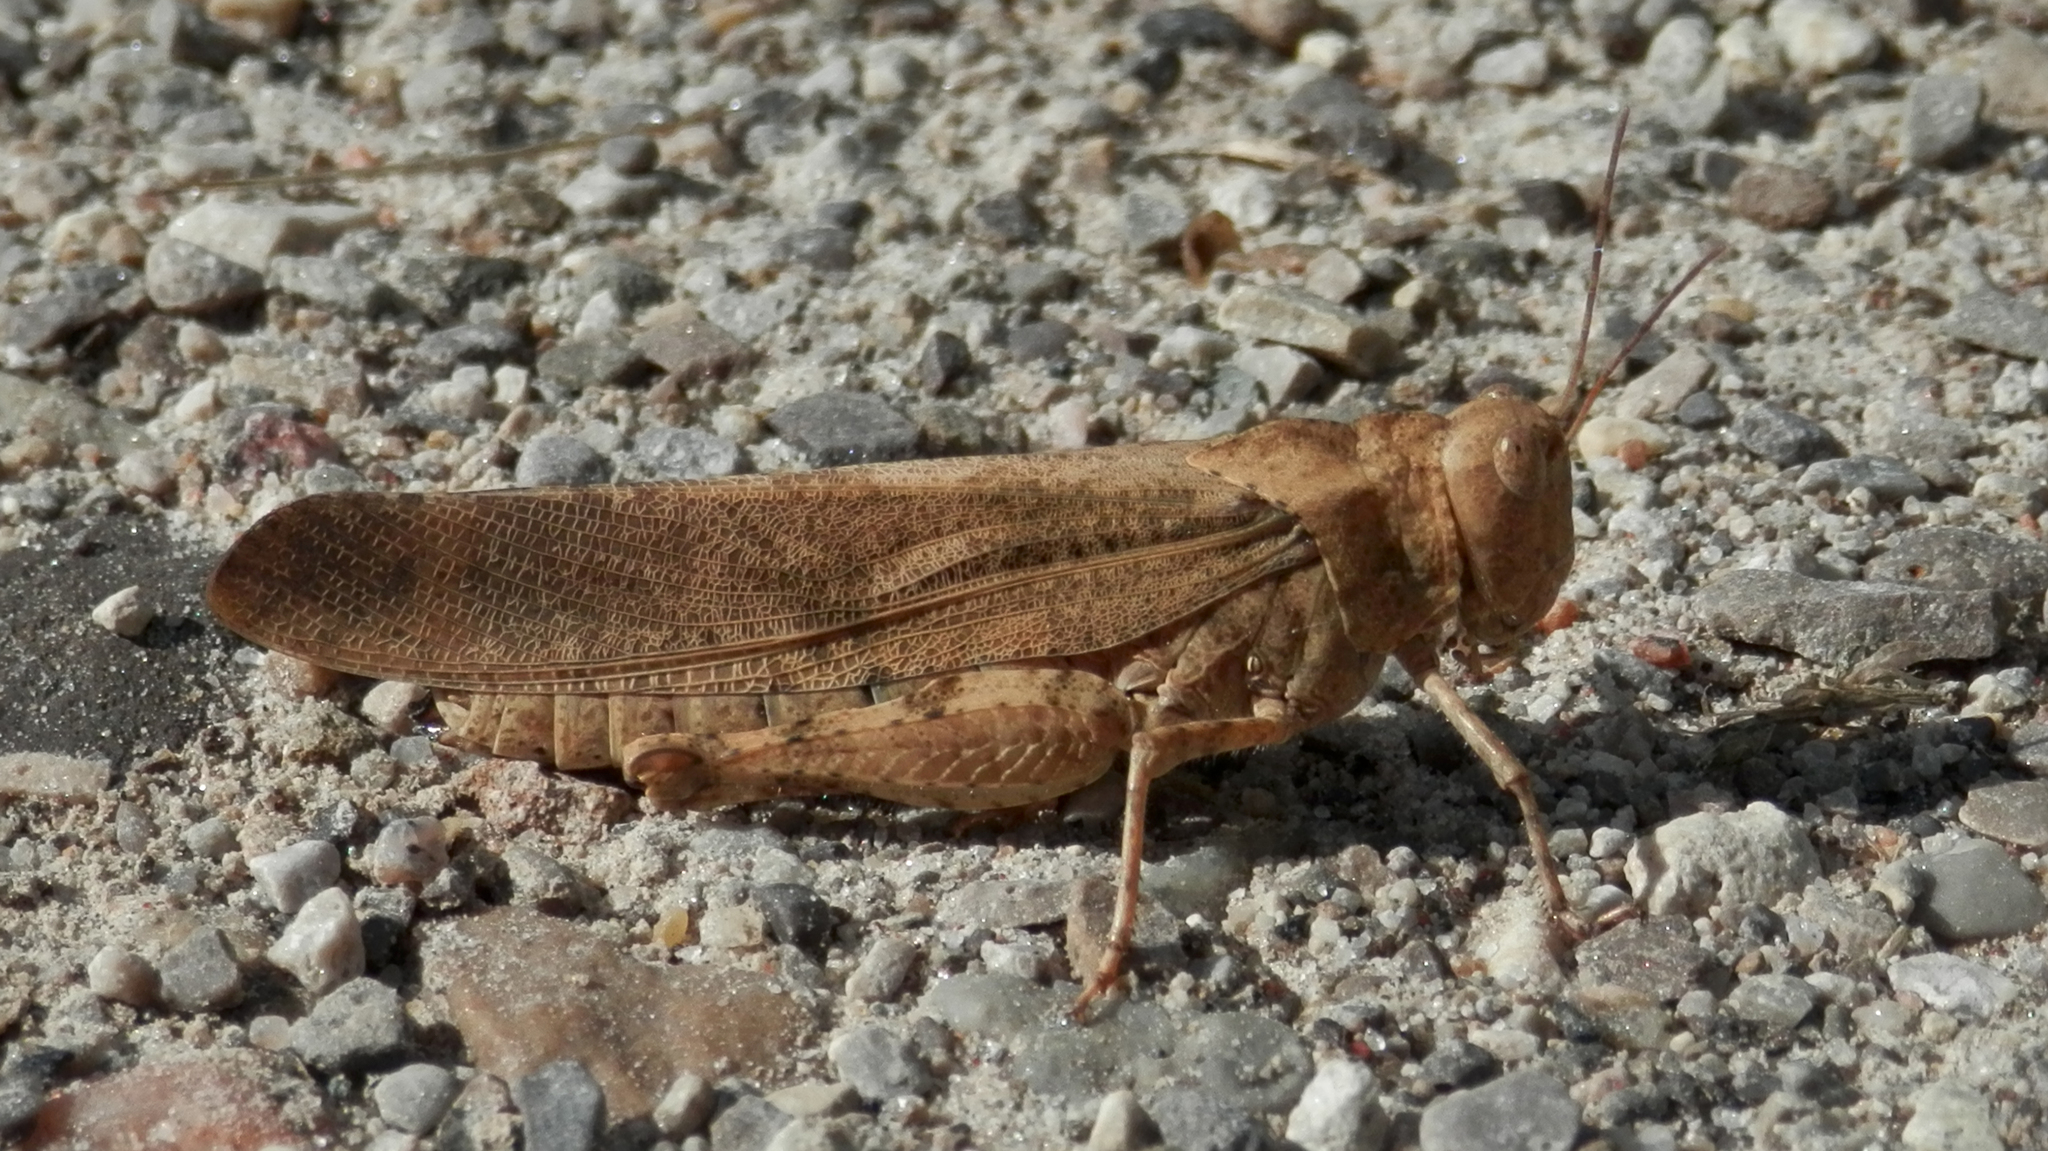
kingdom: Animalia
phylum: Arthropoda
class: Insecta
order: Orthoptera
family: Acrididae
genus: Dissosteira
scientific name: Dissosteira carolina
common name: Carolina grasshopper
